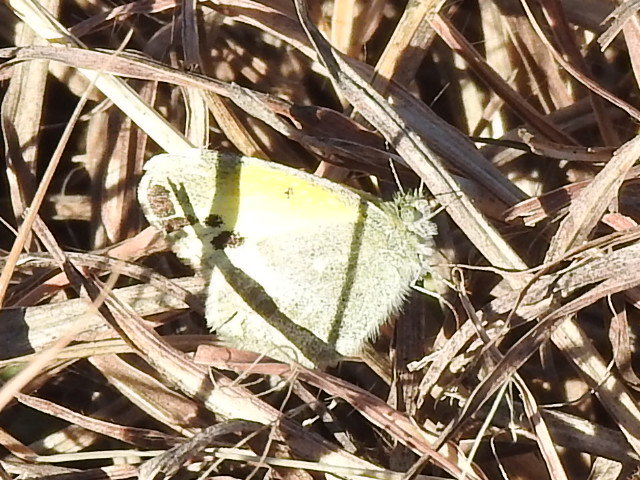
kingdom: Animalia
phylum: Arthropoda
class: Insecta
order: Lepidoptera
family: Pieridae
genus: Nathalis
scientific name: Nathalis iole
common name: Dainty sulphur
